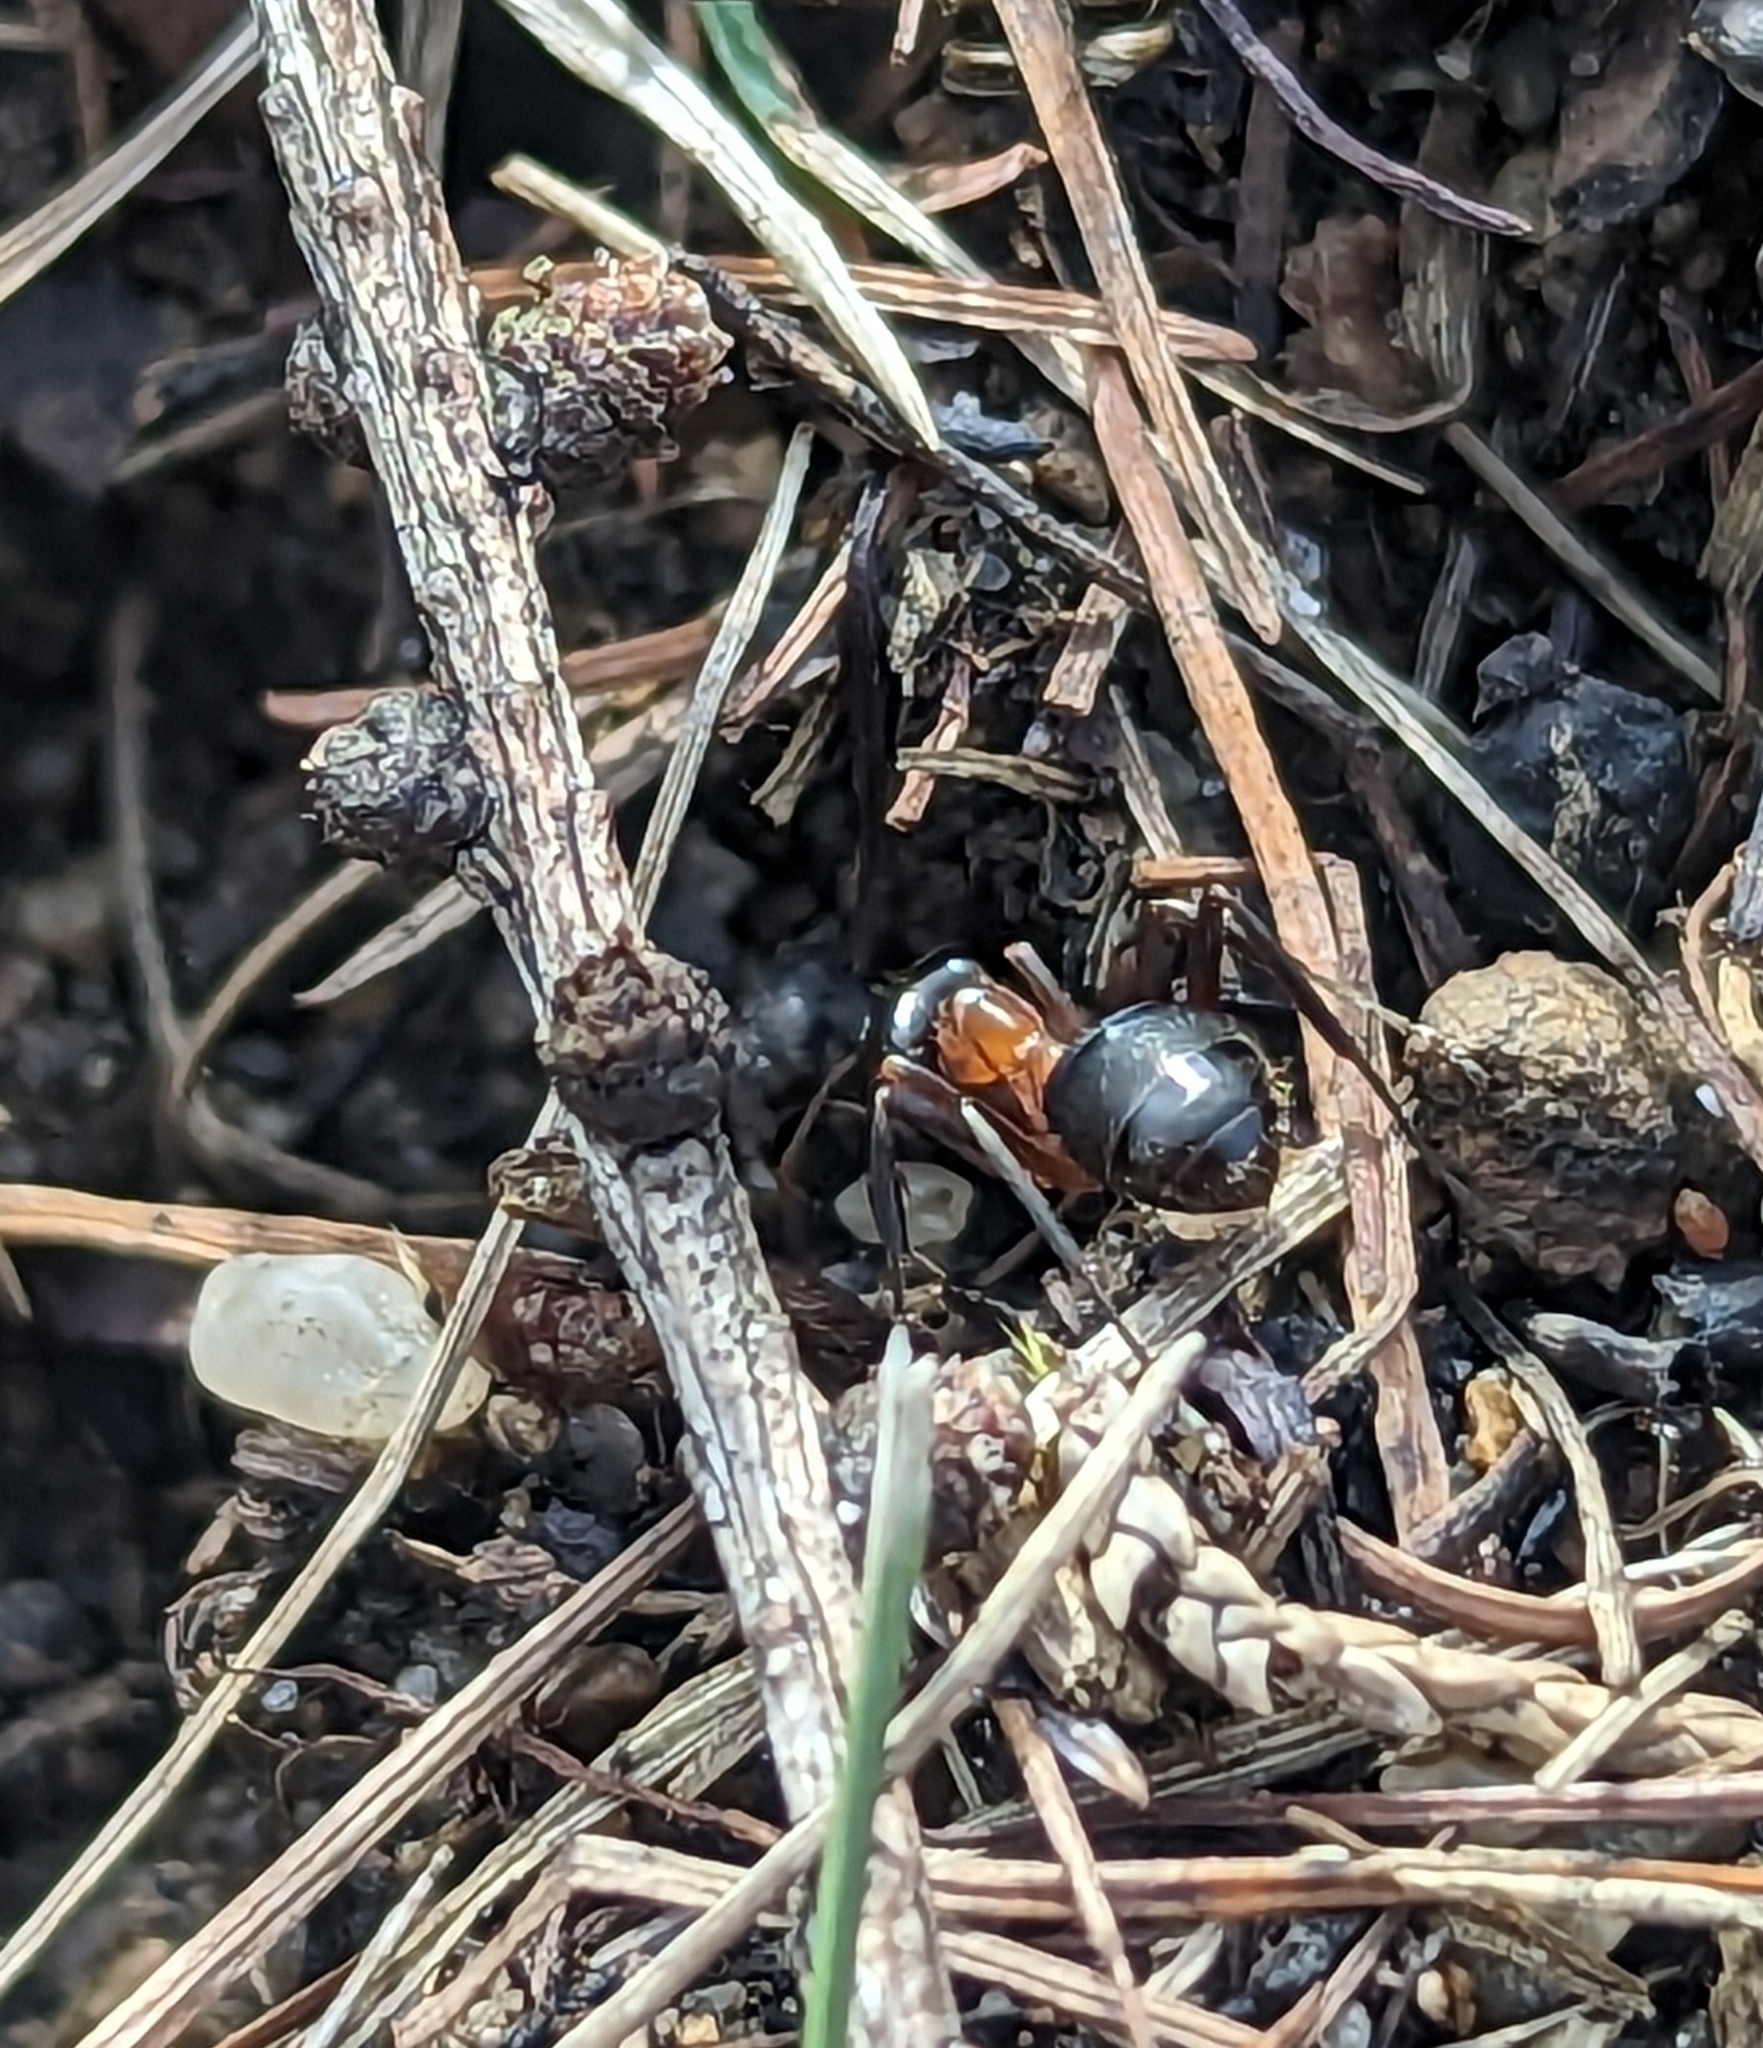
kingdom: Animalia
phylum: Arthropoda
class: Insecta
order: Hymenoptera
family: Formicidae
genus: Formica
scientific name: Formica ulkei
